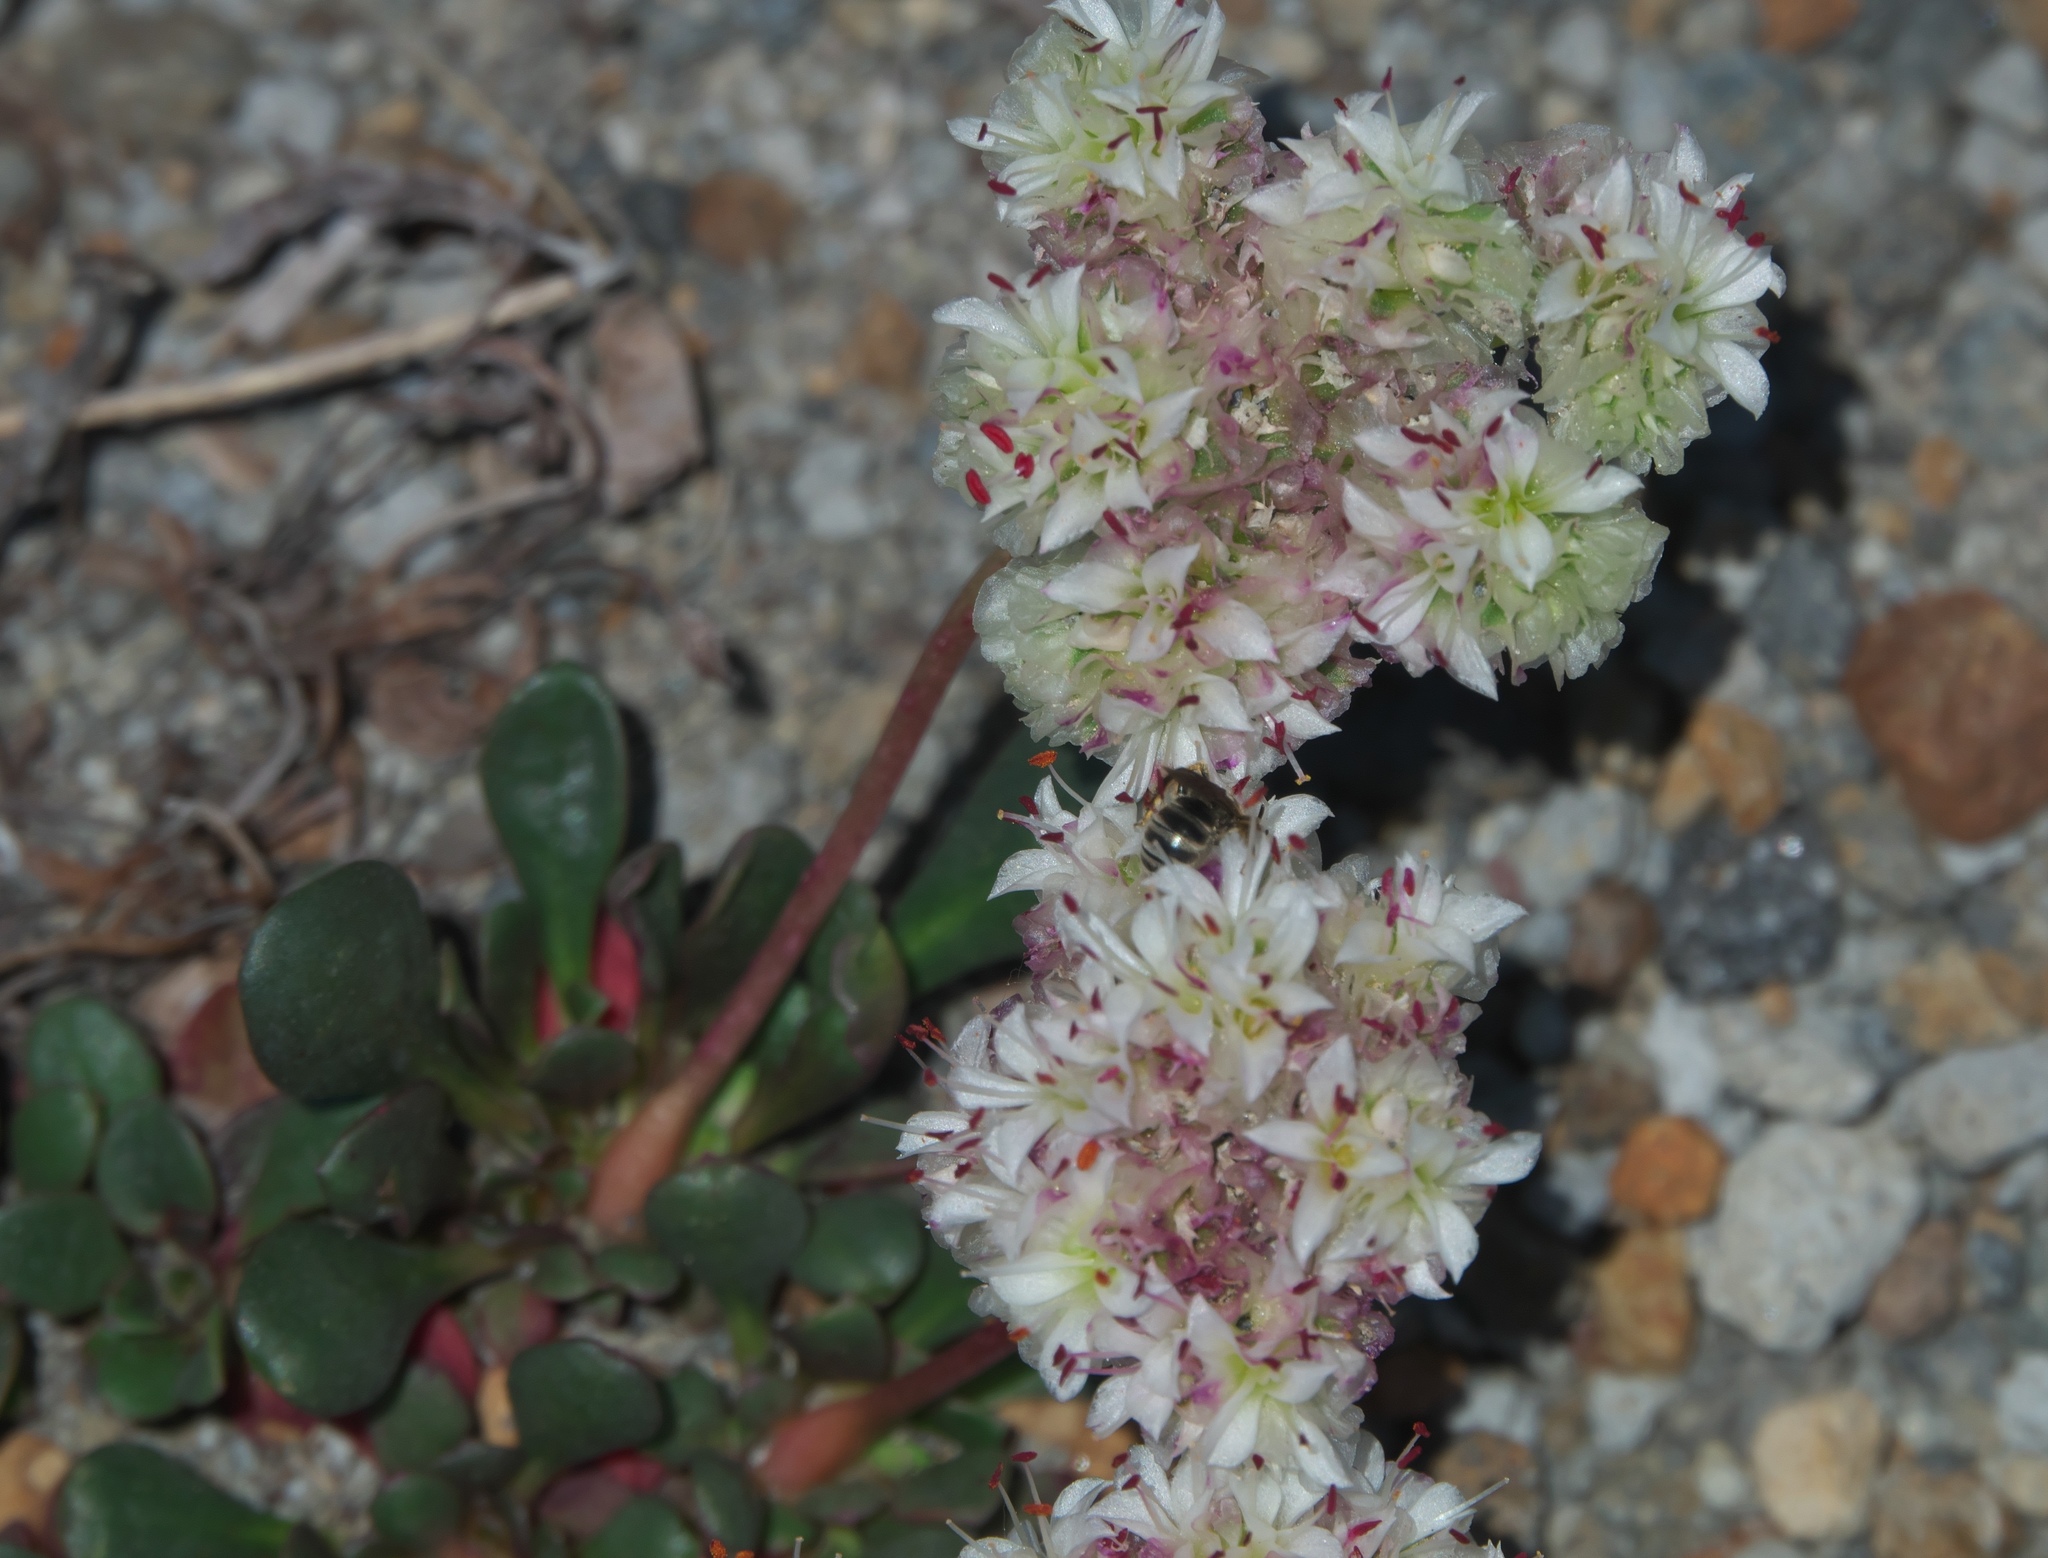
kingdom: Plantae
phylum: Tracheophyta
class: Magnoliopsida
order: Caryophyllales
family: Montiaceae
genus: Calyptridium
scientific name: Calyptridium umbellatum
